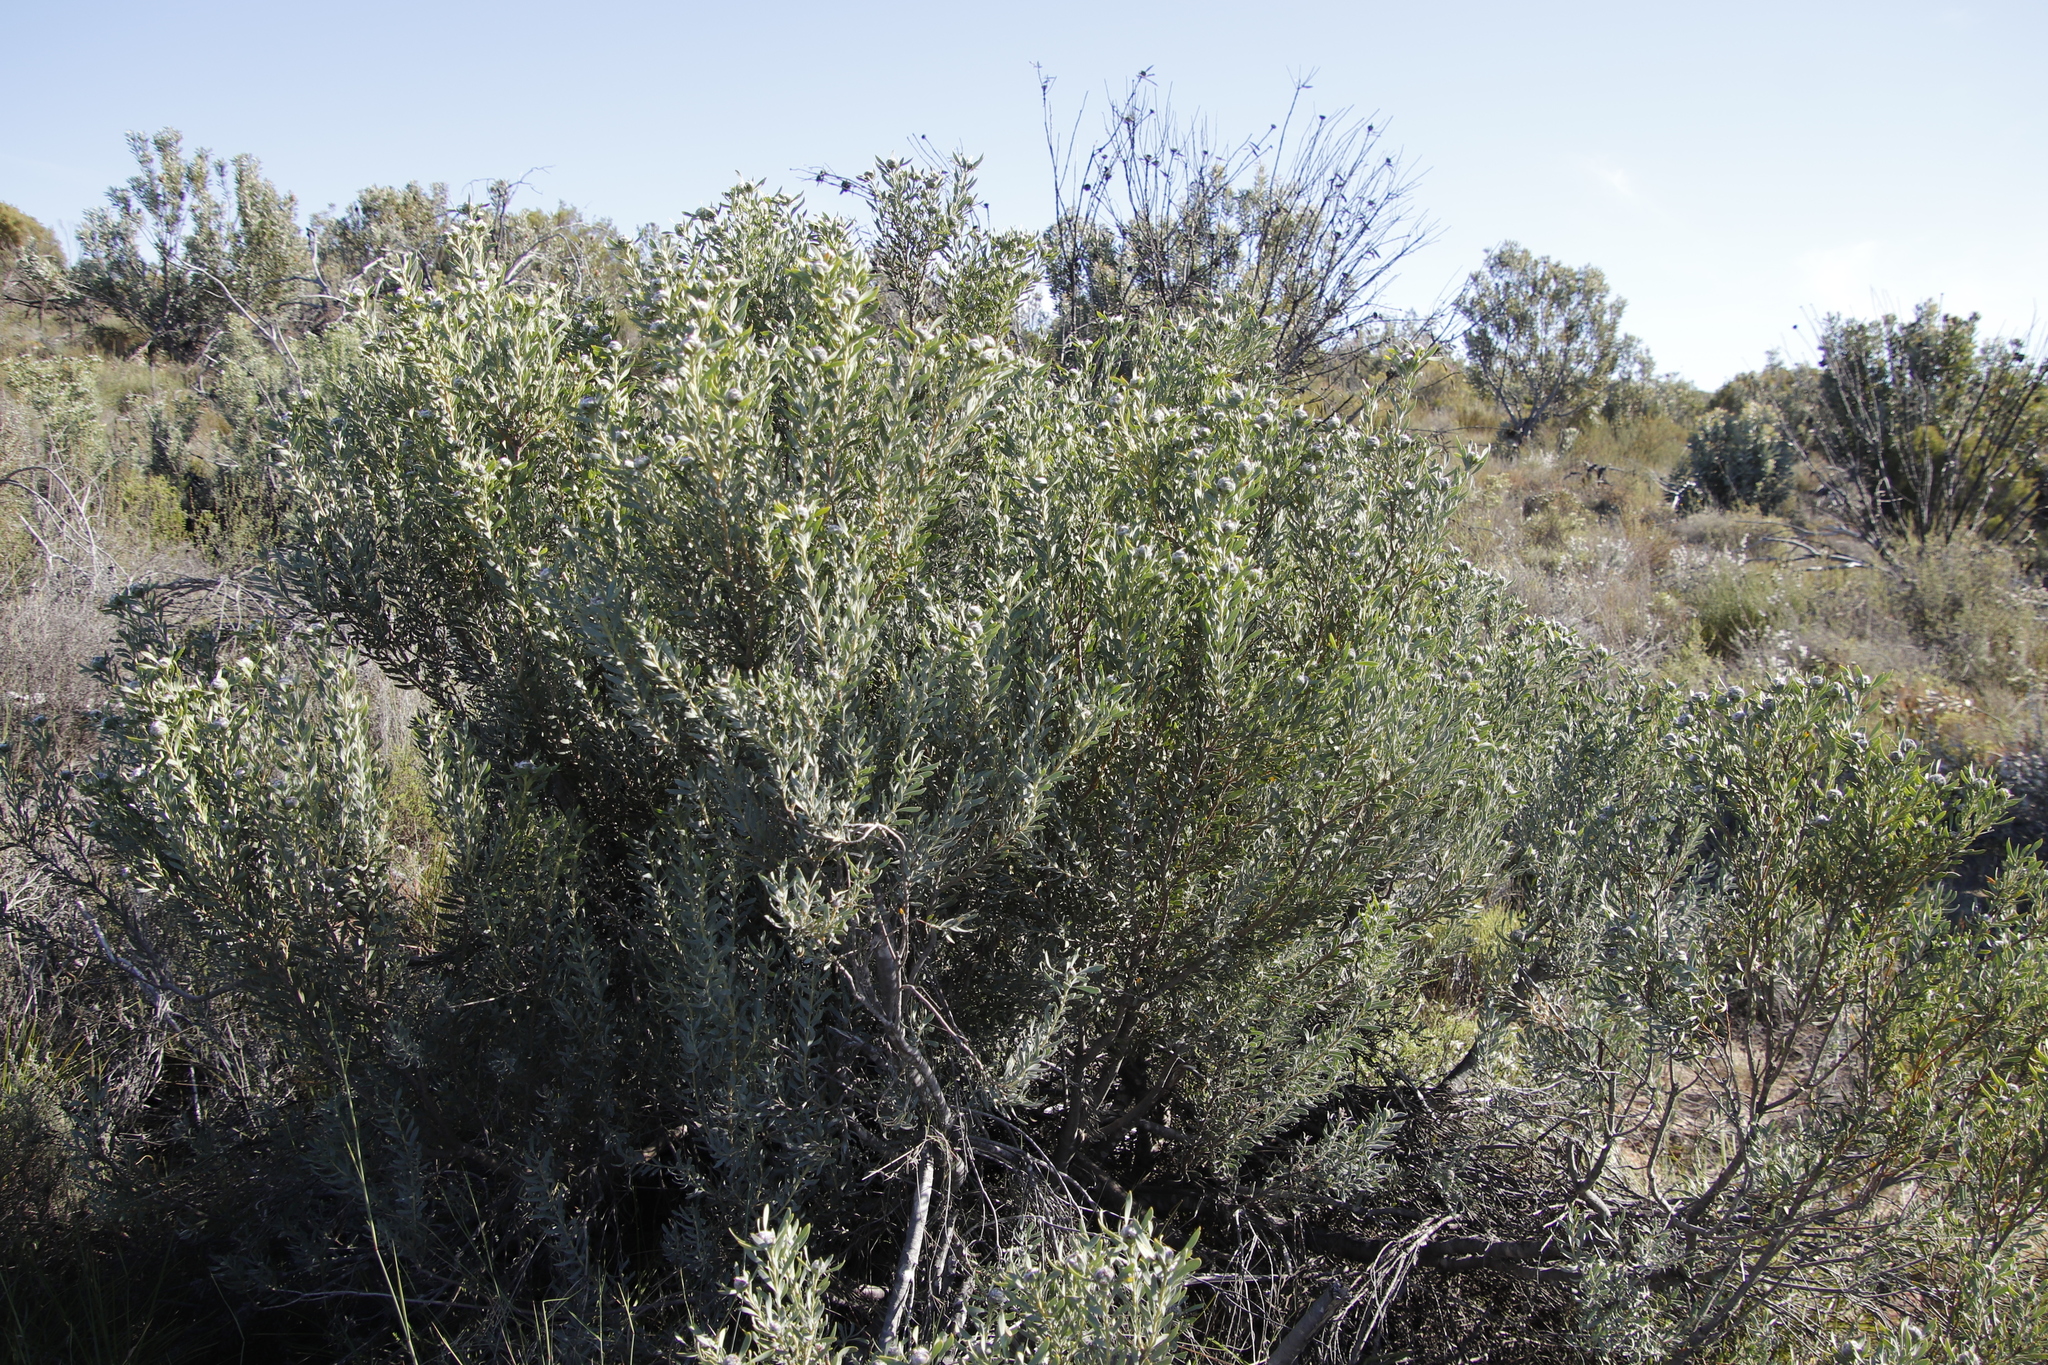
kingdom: Plantae
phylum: Tracheophyta
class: Magnoliopsida
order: Proteales
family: Proteaceae
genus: Leucadendron
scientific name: Leucadendron pubescens
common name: Grey conebush
